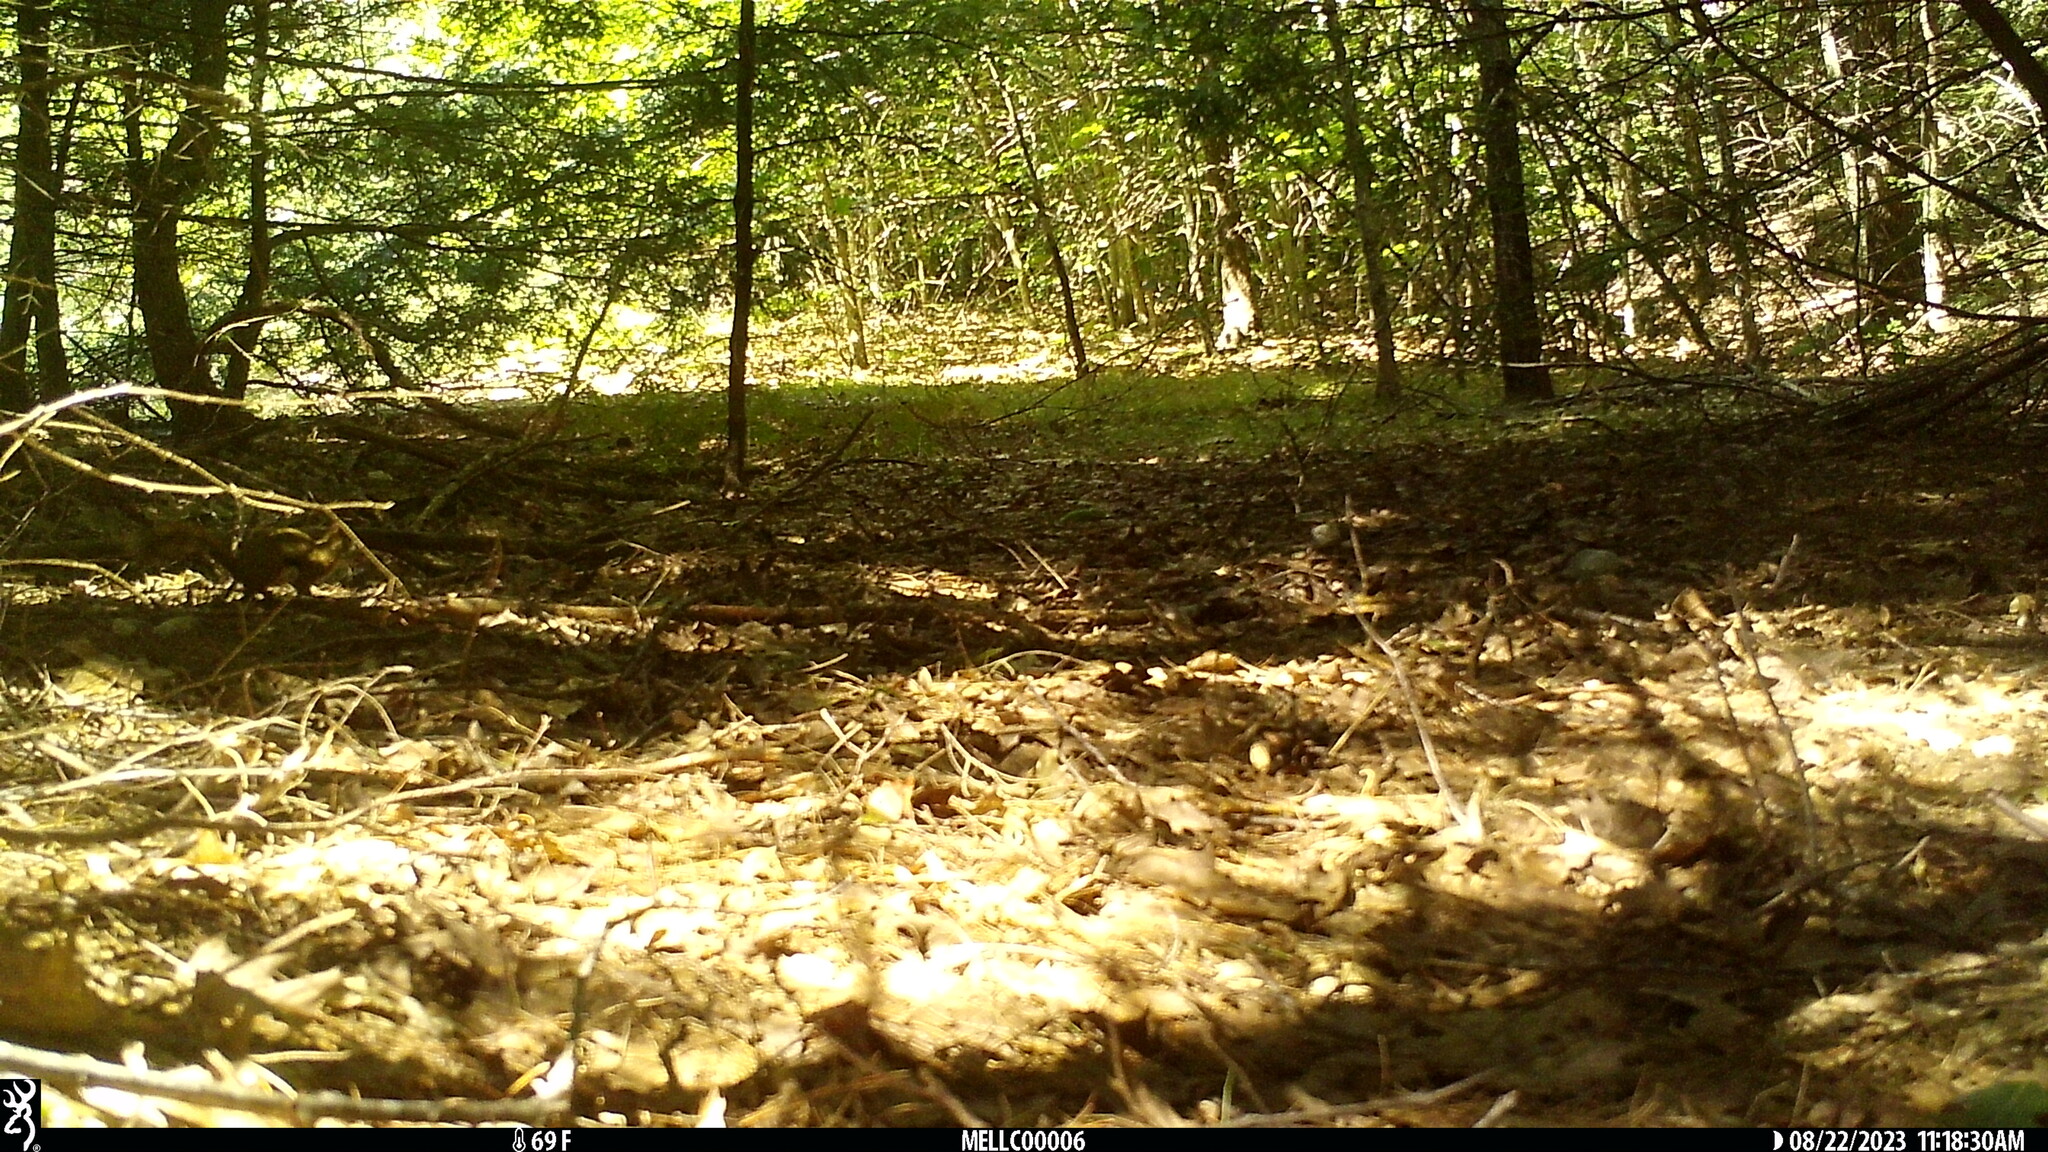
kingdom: Animalia
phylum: Chordata
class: Mammalia
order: Rodentia
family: Sciuridae
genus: Tamiasciurus
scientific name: Tamiasciurus hudsonicus
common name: Red squirrel
